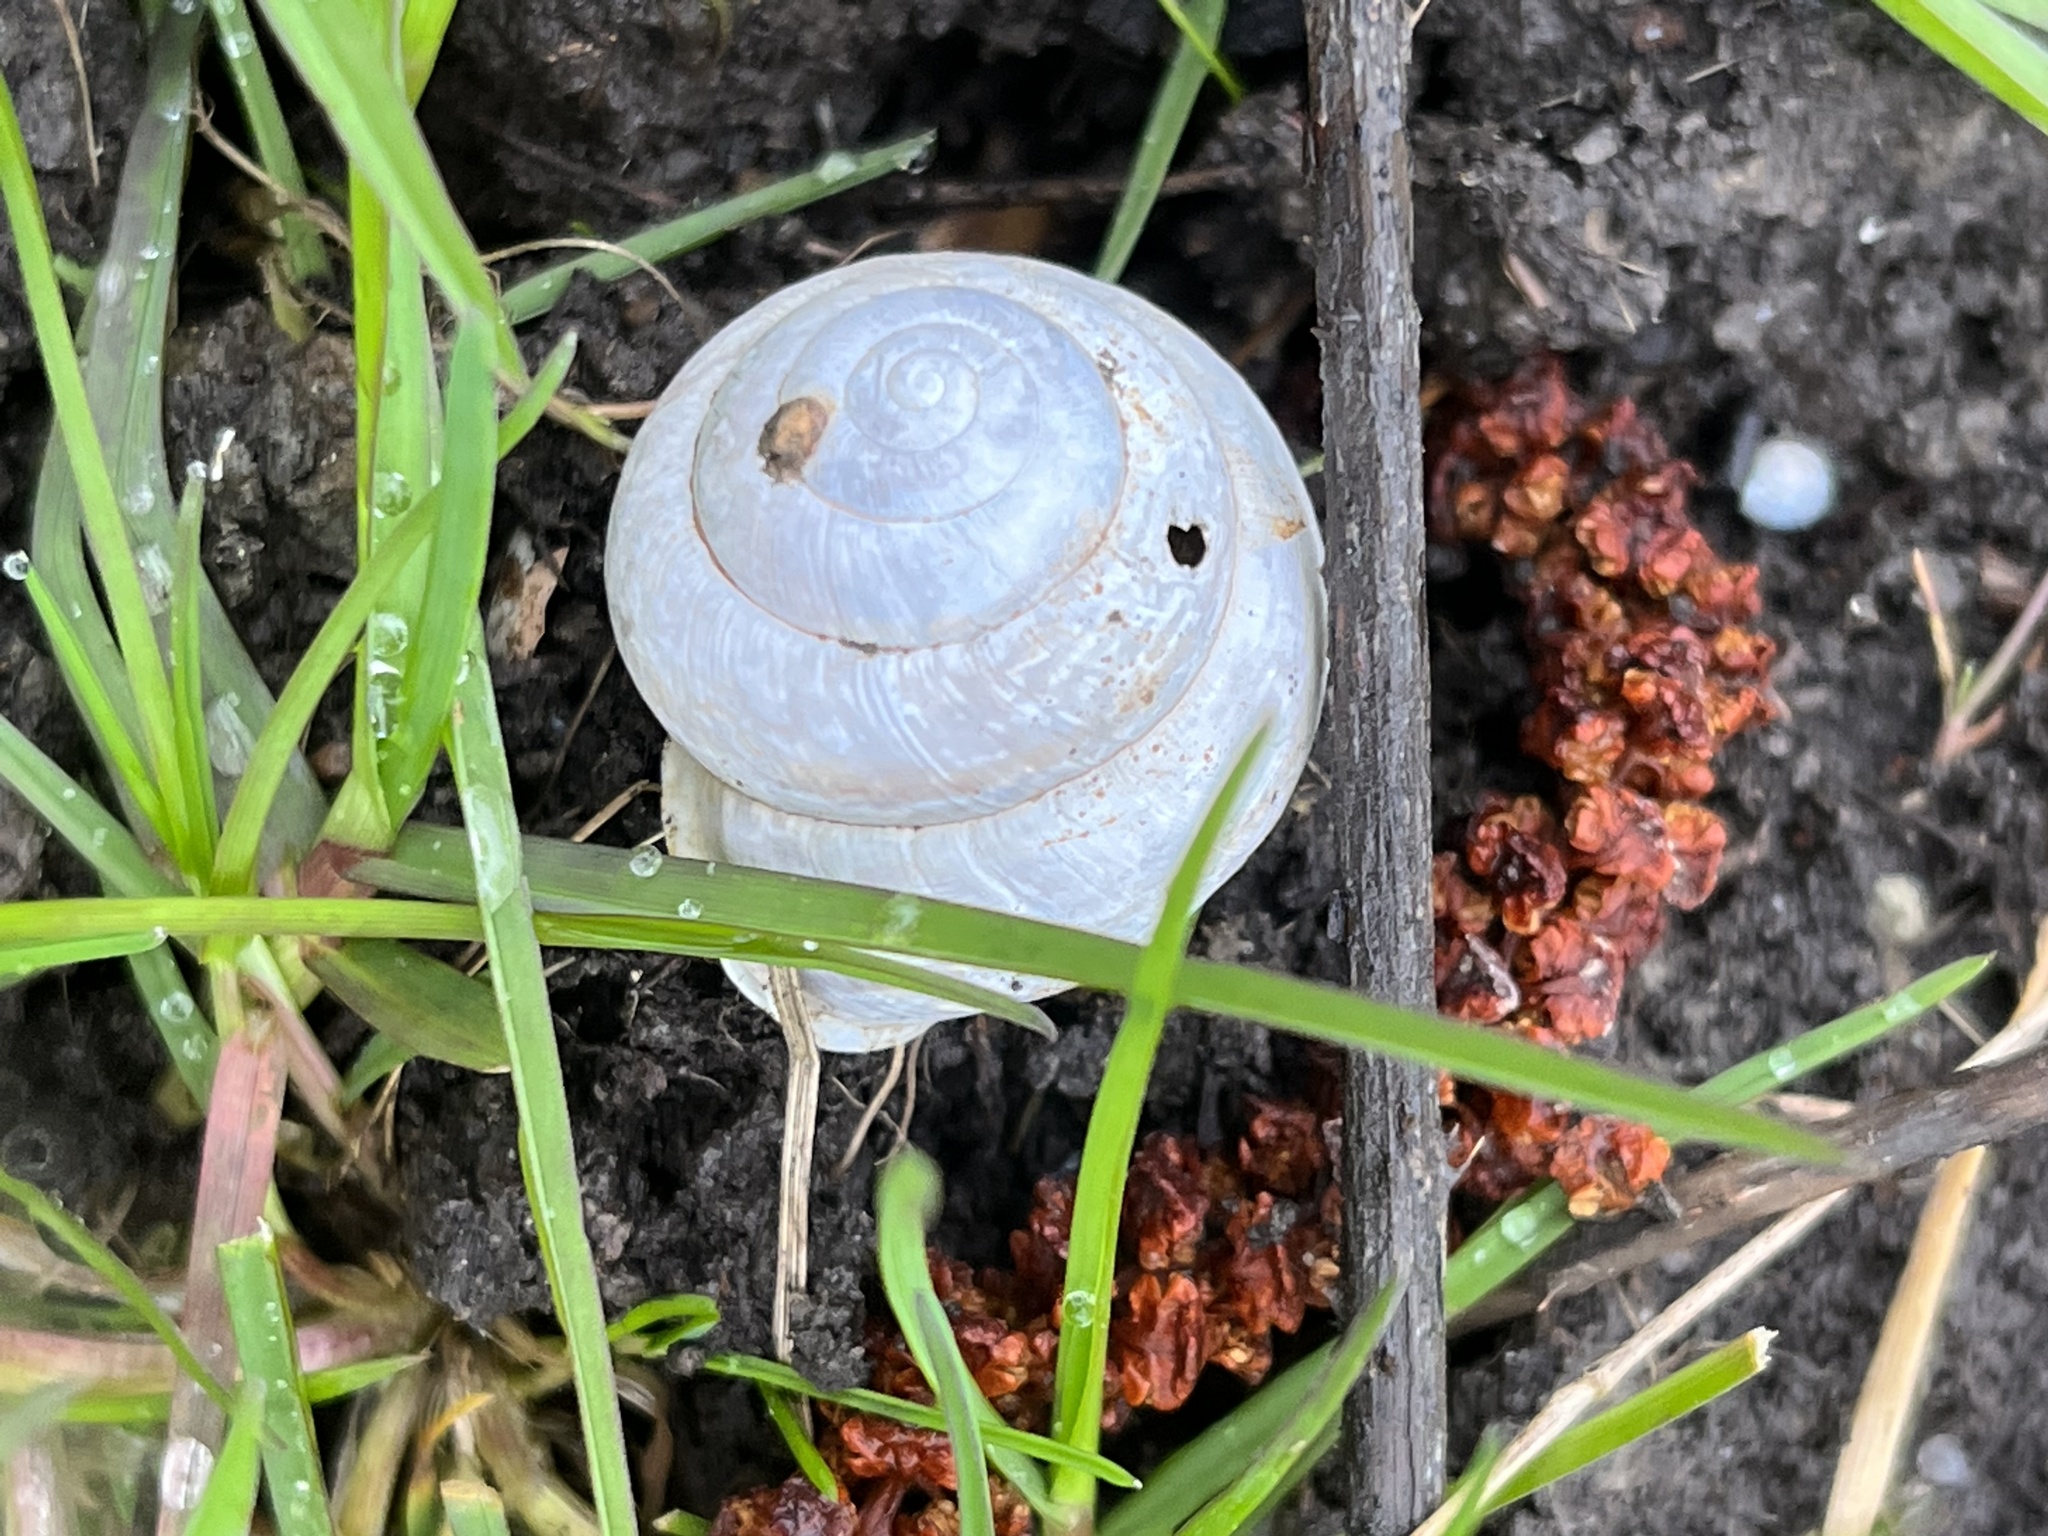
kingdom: Animalia
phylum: Mollusca
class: Gastropoda
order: Stylommatophora
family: Helicidae
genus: Arianta
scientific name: Arianta arbustorum
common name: Copse snail
